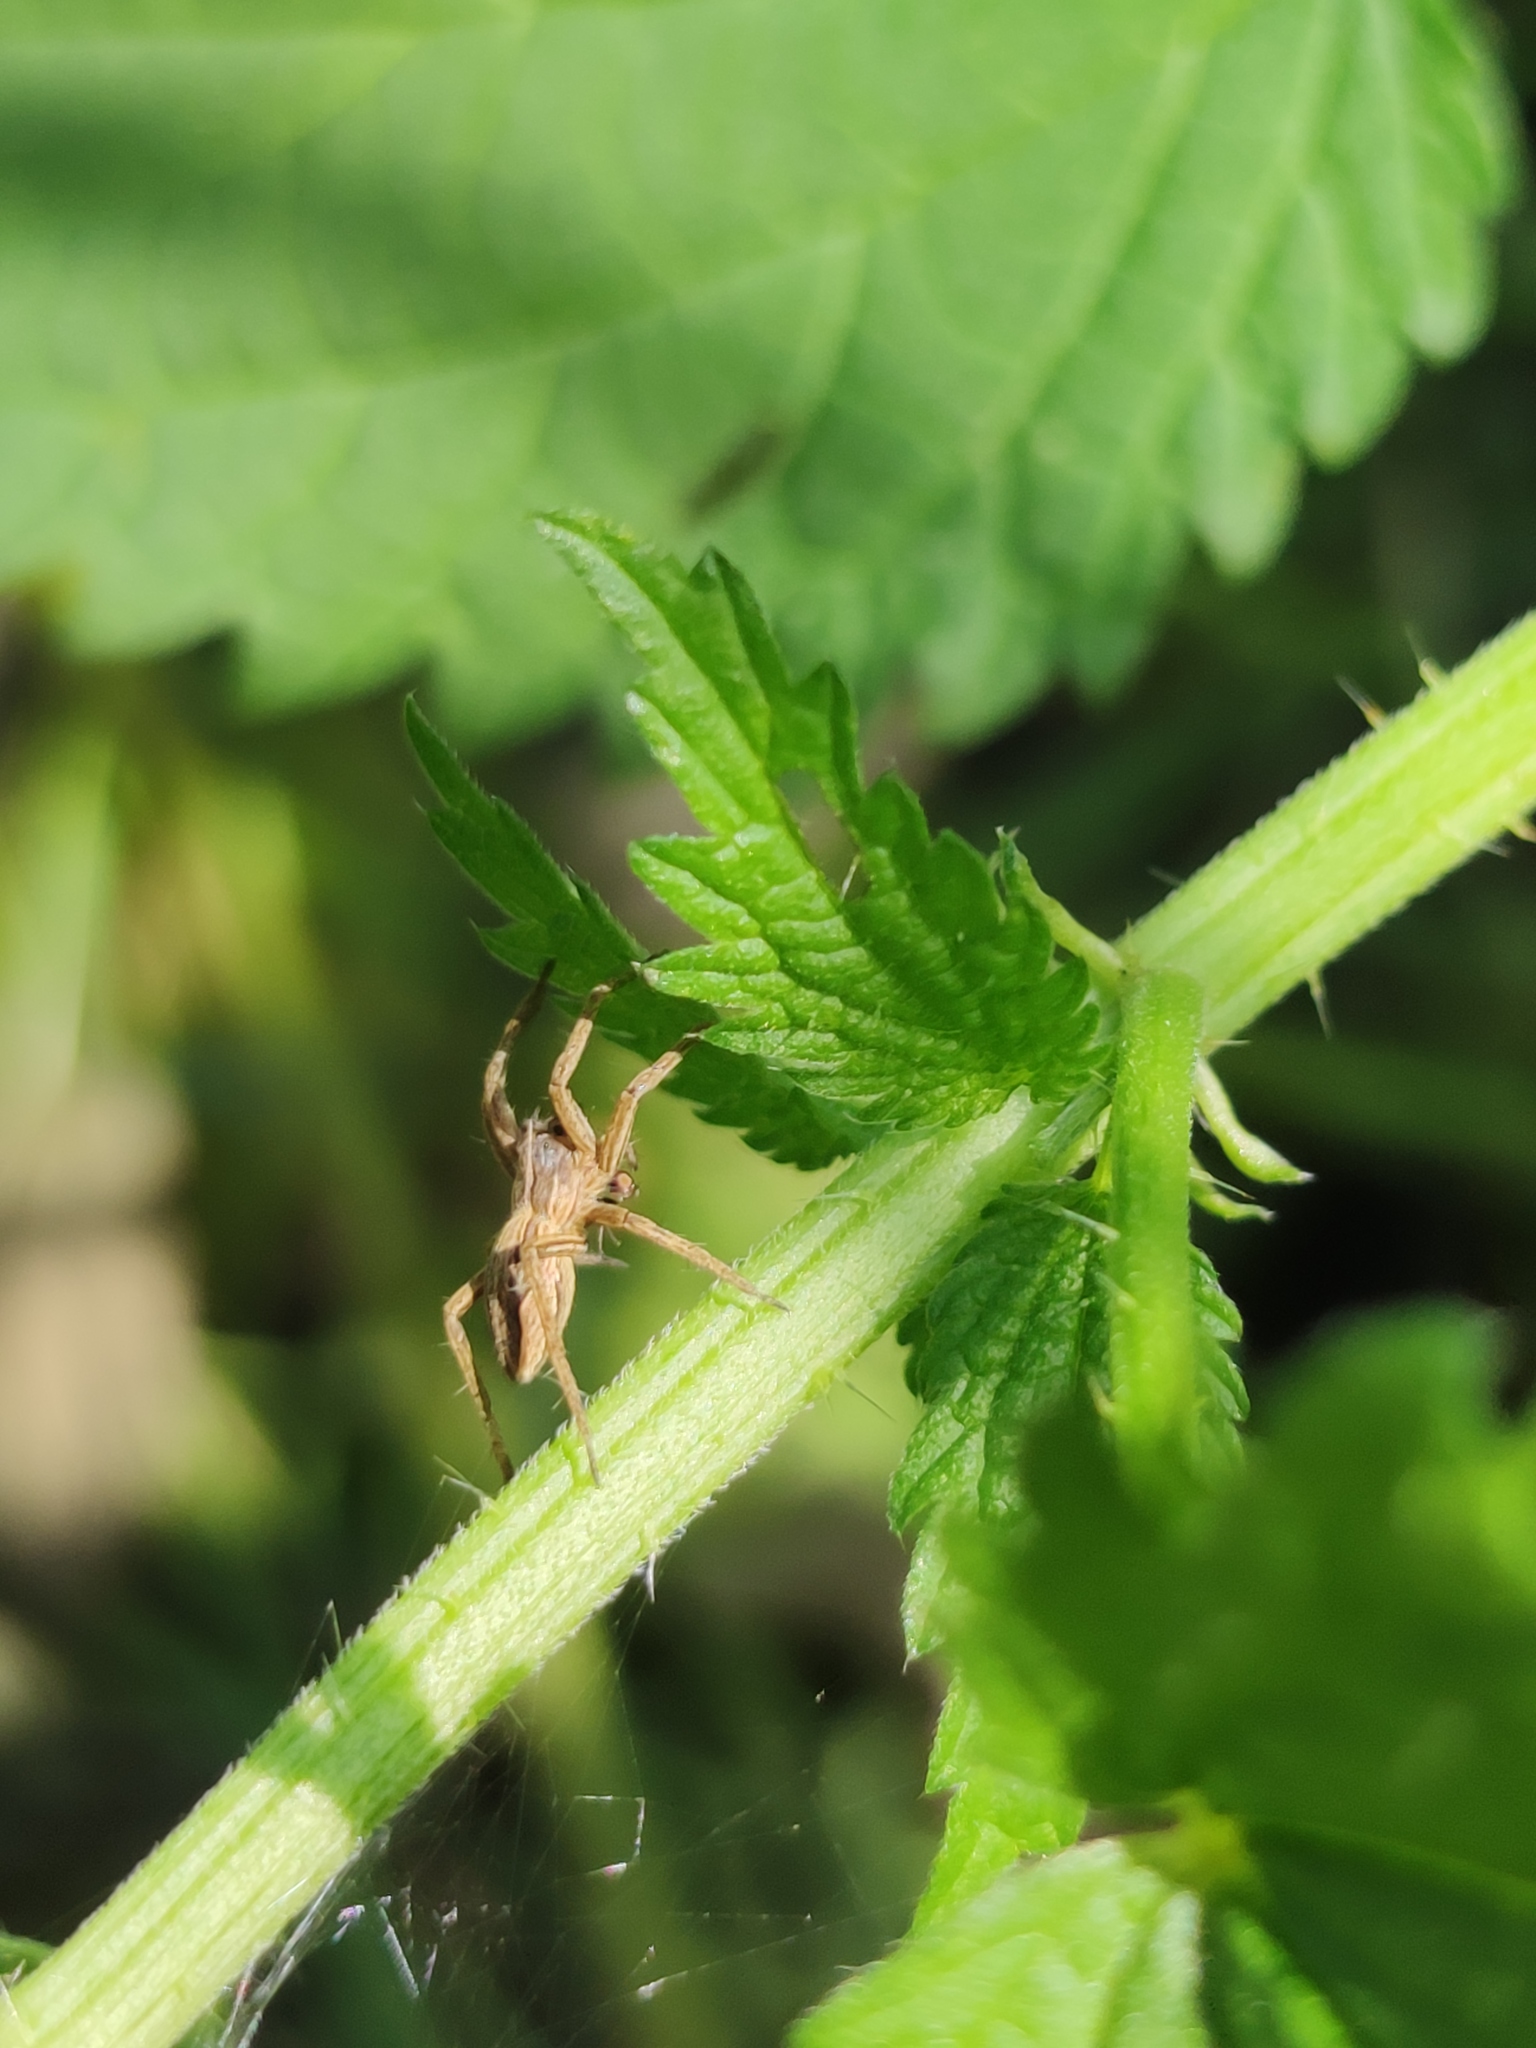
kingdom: Animalia
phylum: Arthropoda
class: Arachnida
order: Araneae
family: Pisauridae
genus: Pisaura
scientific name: Pisaura mirabilis
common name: Tent spider
